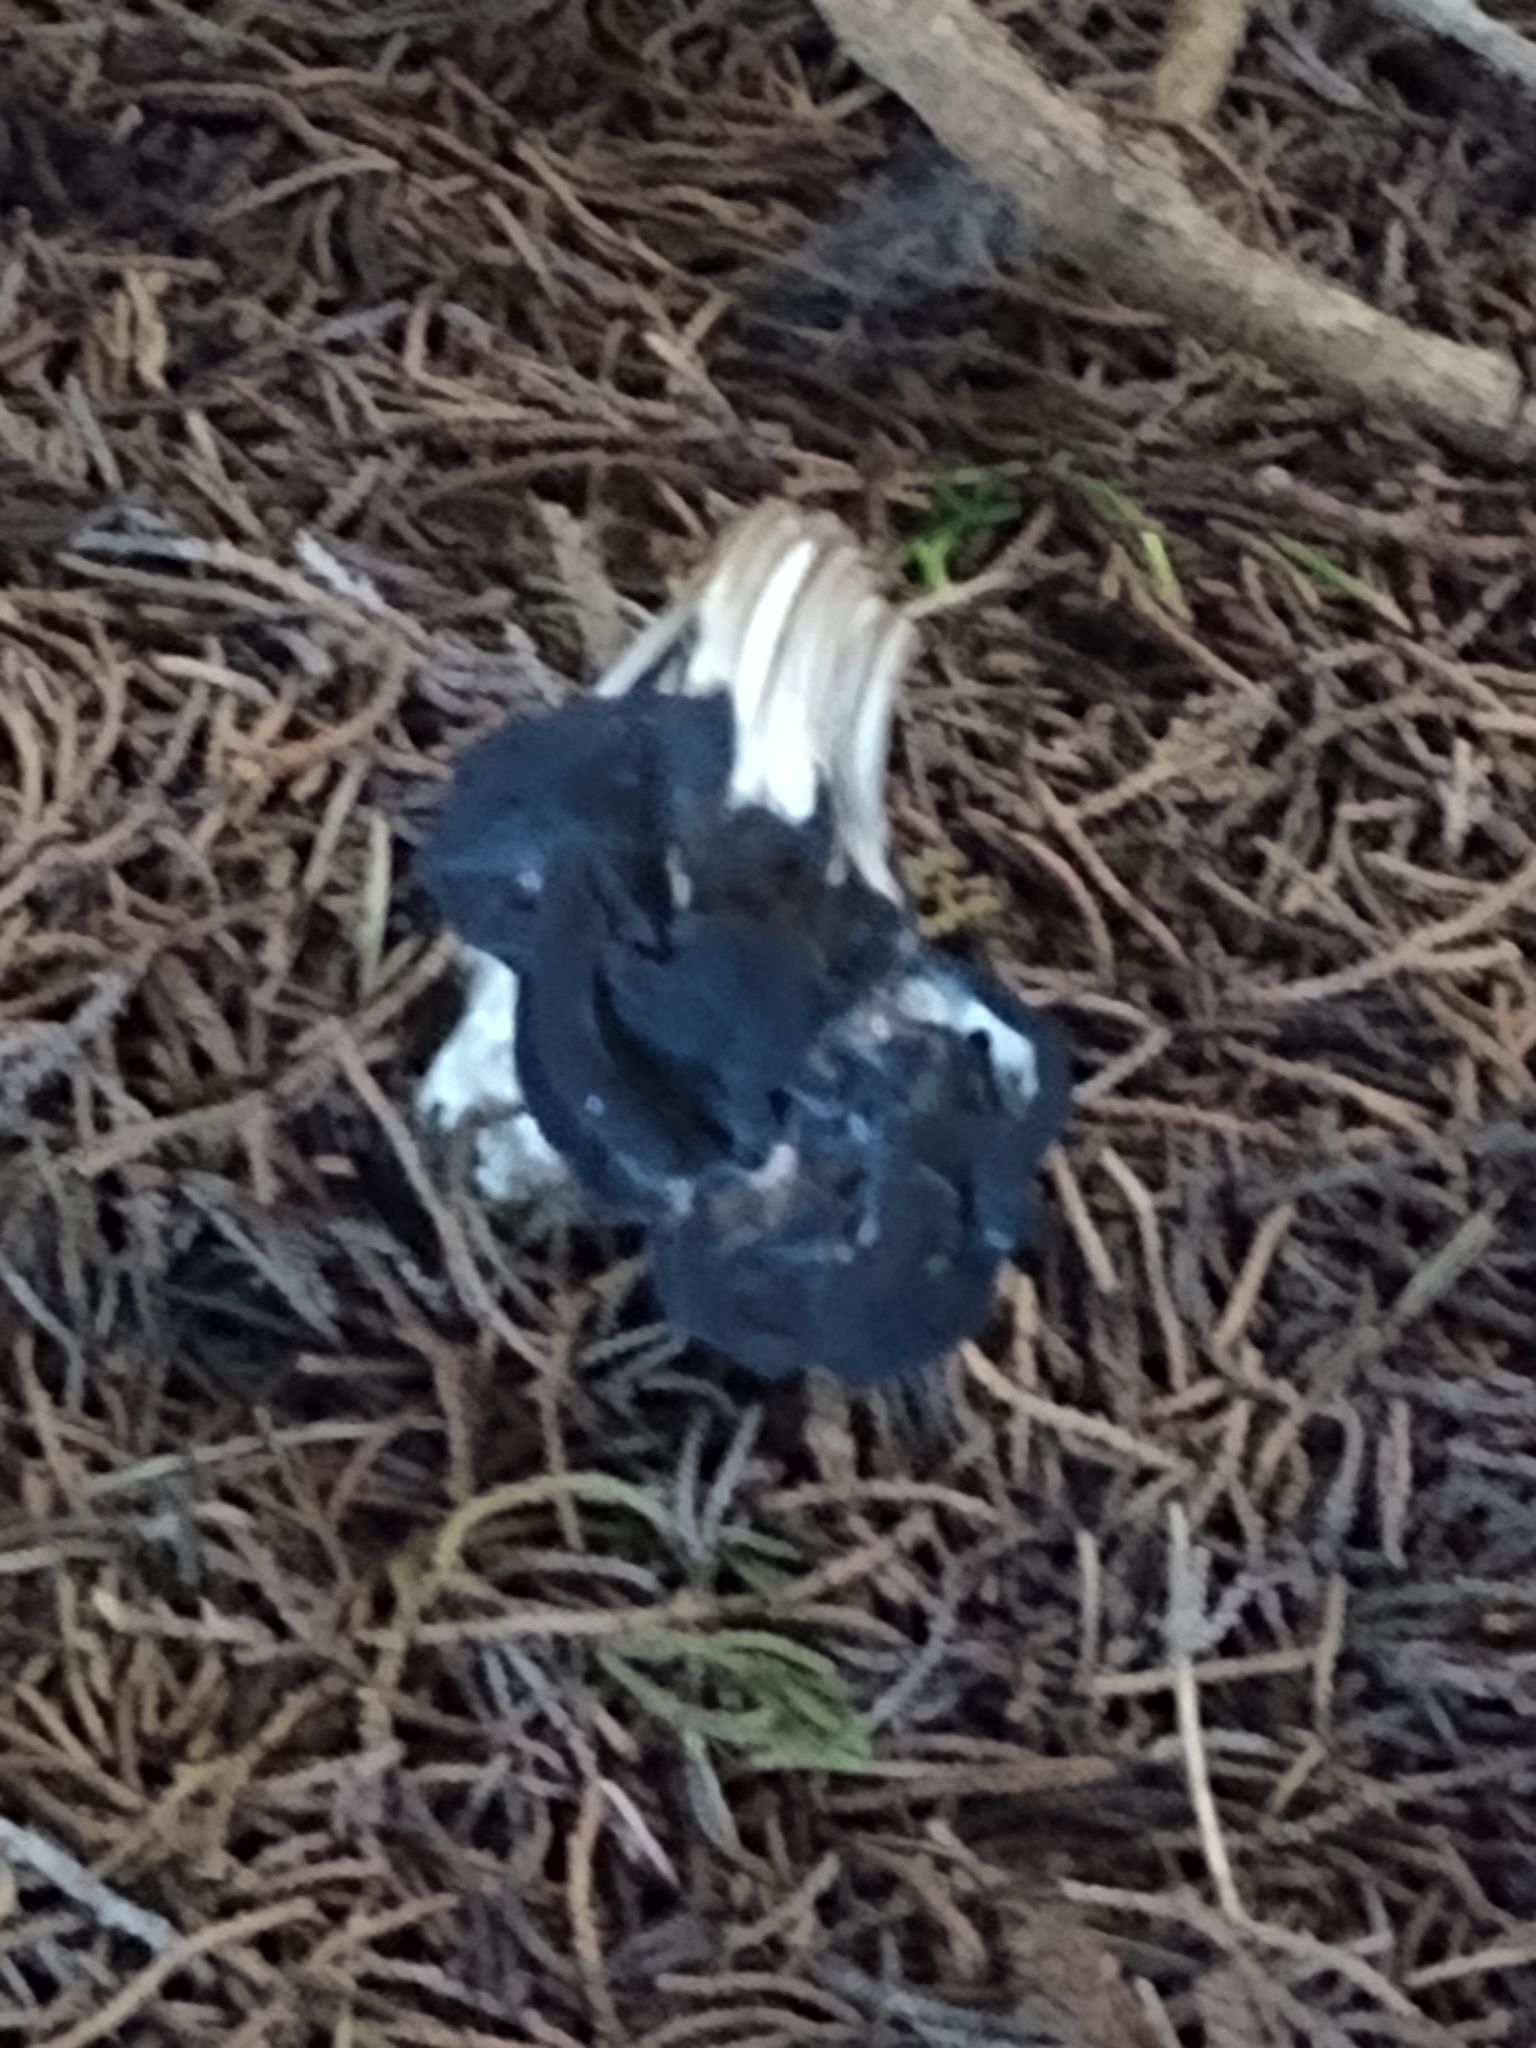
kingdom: Fungi
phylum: Ascomycota
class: Pezizomycetes
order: Pezizales
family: Helvellaceae
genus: Helvella
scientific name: Helvella vespertina
